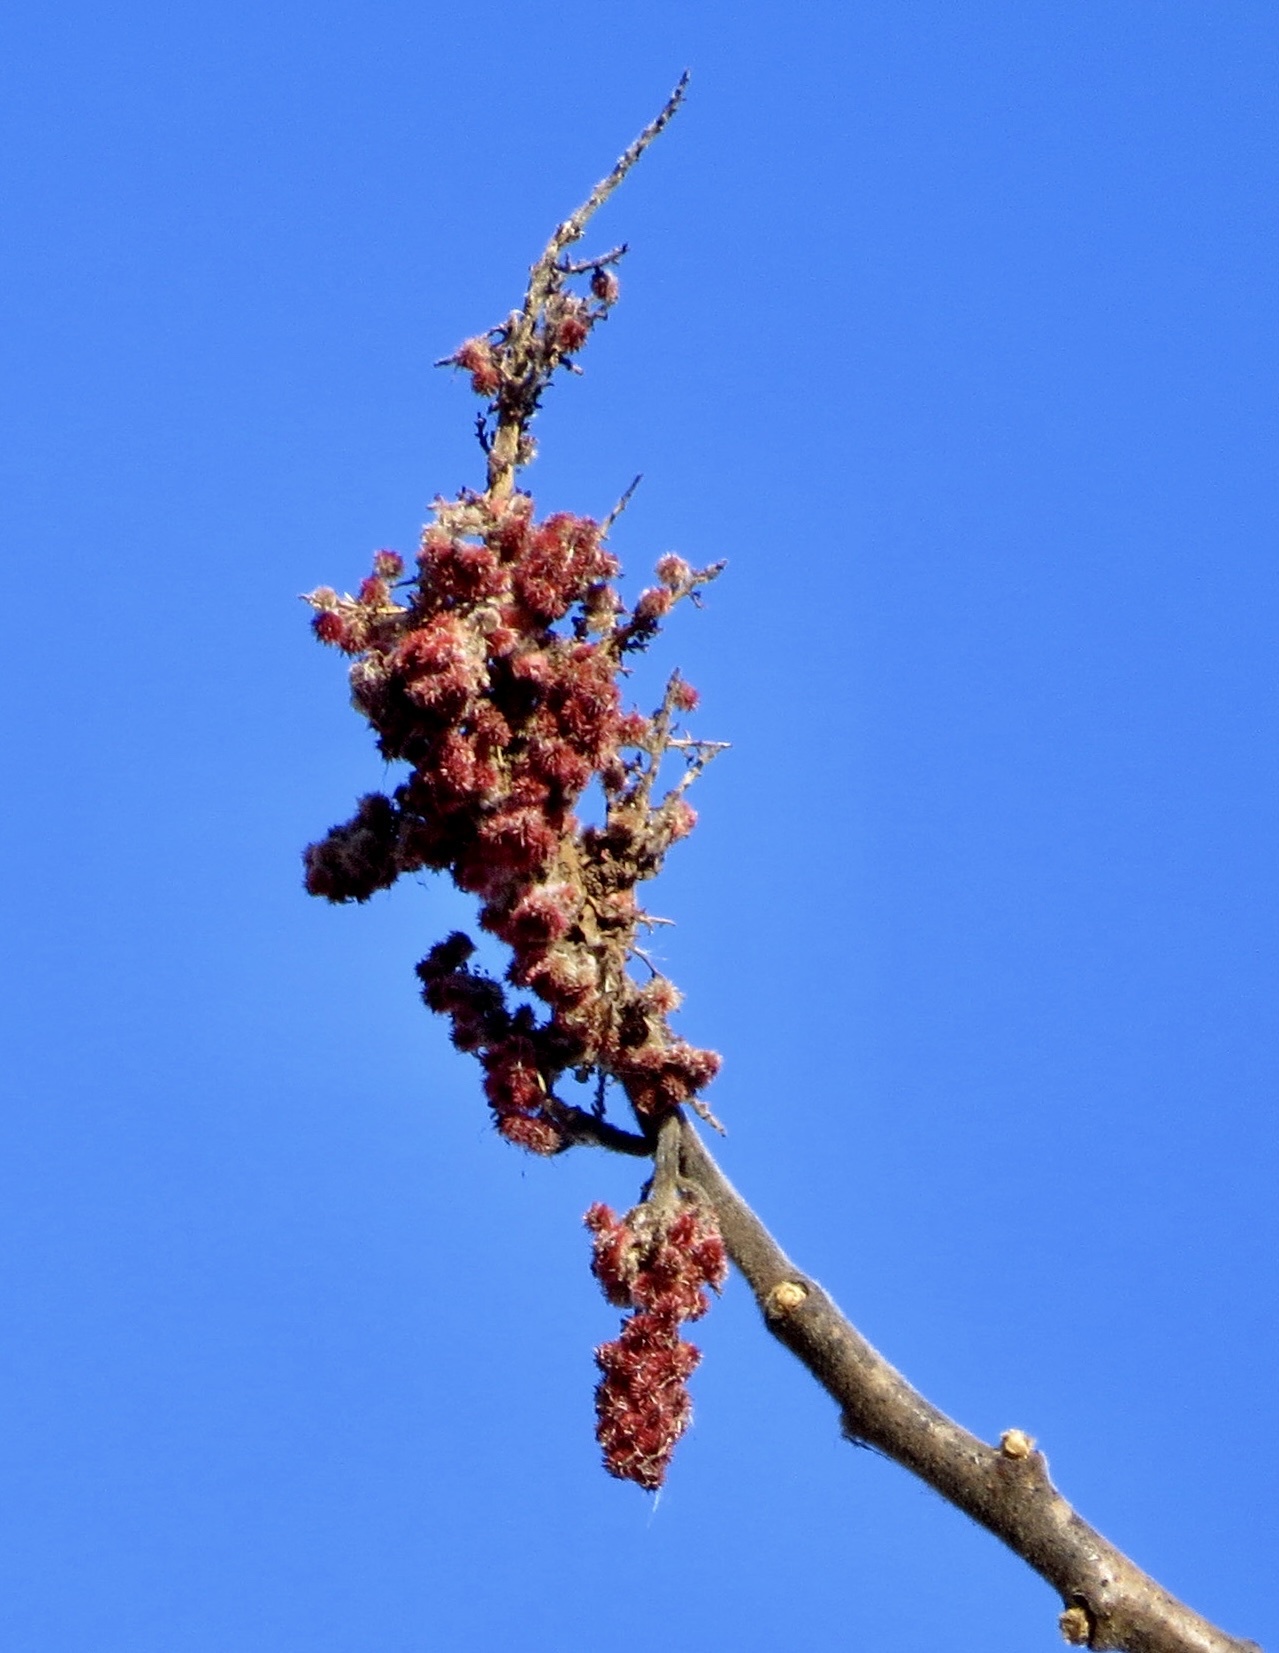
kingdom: Plantae
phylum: Tracheophyta
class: Magnoliopsida
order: Sapindales
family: Anacardiaceae
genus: Rhus
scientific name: Rhus typhina
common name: Staghorn sumac
